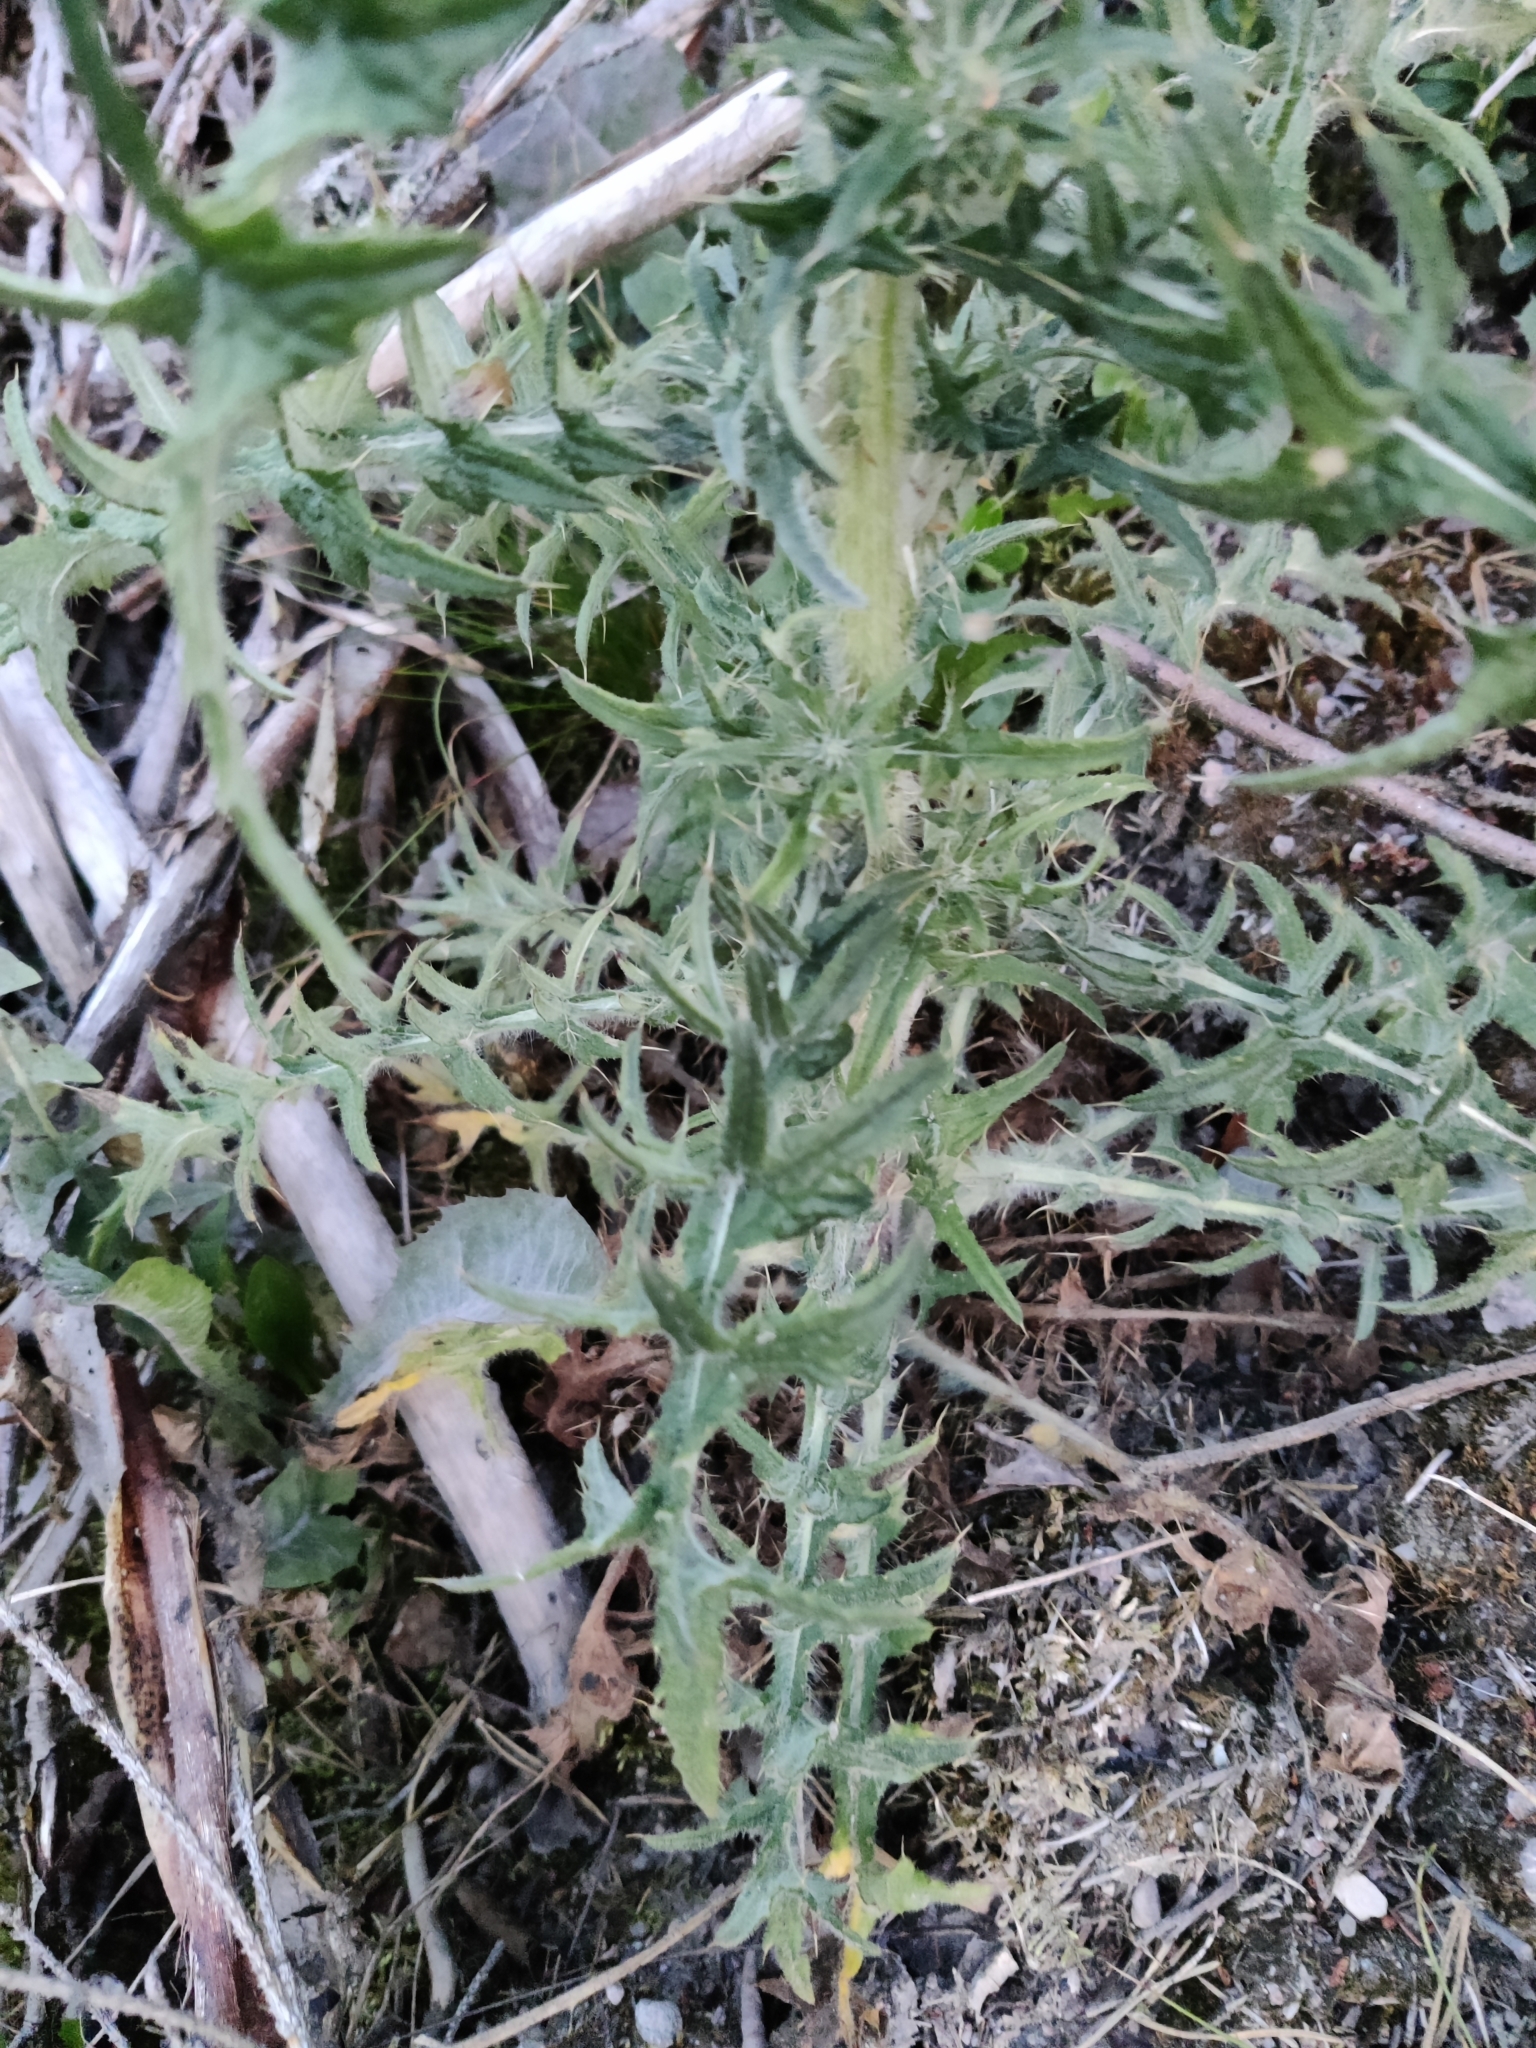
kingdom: Plantae
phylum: Tracheophyta
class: Magnoliopsida
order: Asterales
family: Asteraceae
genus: Cirsium
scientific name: Cirsium vulgare
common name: Bull thistle
